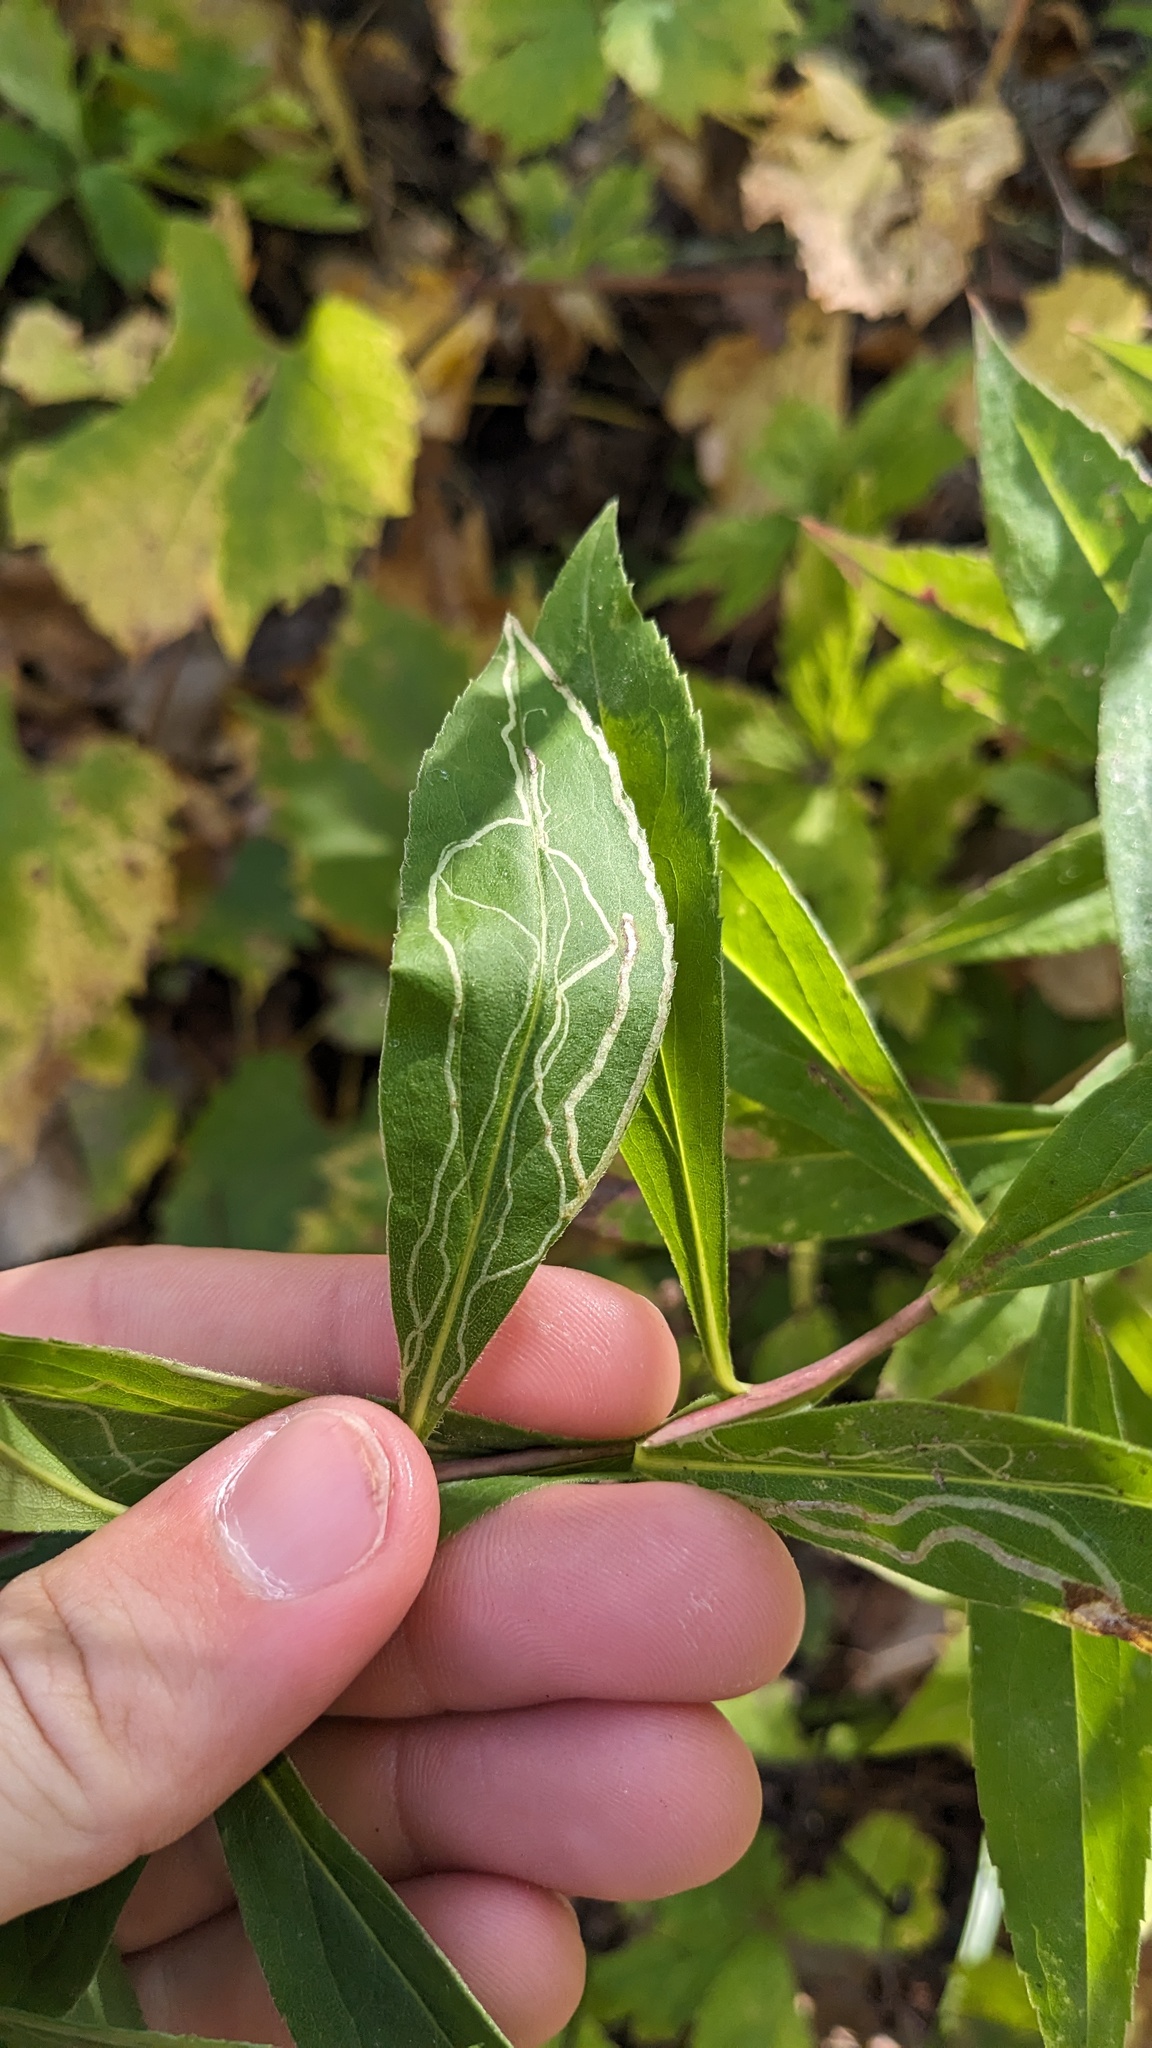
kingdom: Animalia
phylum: Arthropoda
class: Insecta
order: Diptera
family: Agromyzidae
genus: Ophiomyia
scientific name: Ophiomyia maura
